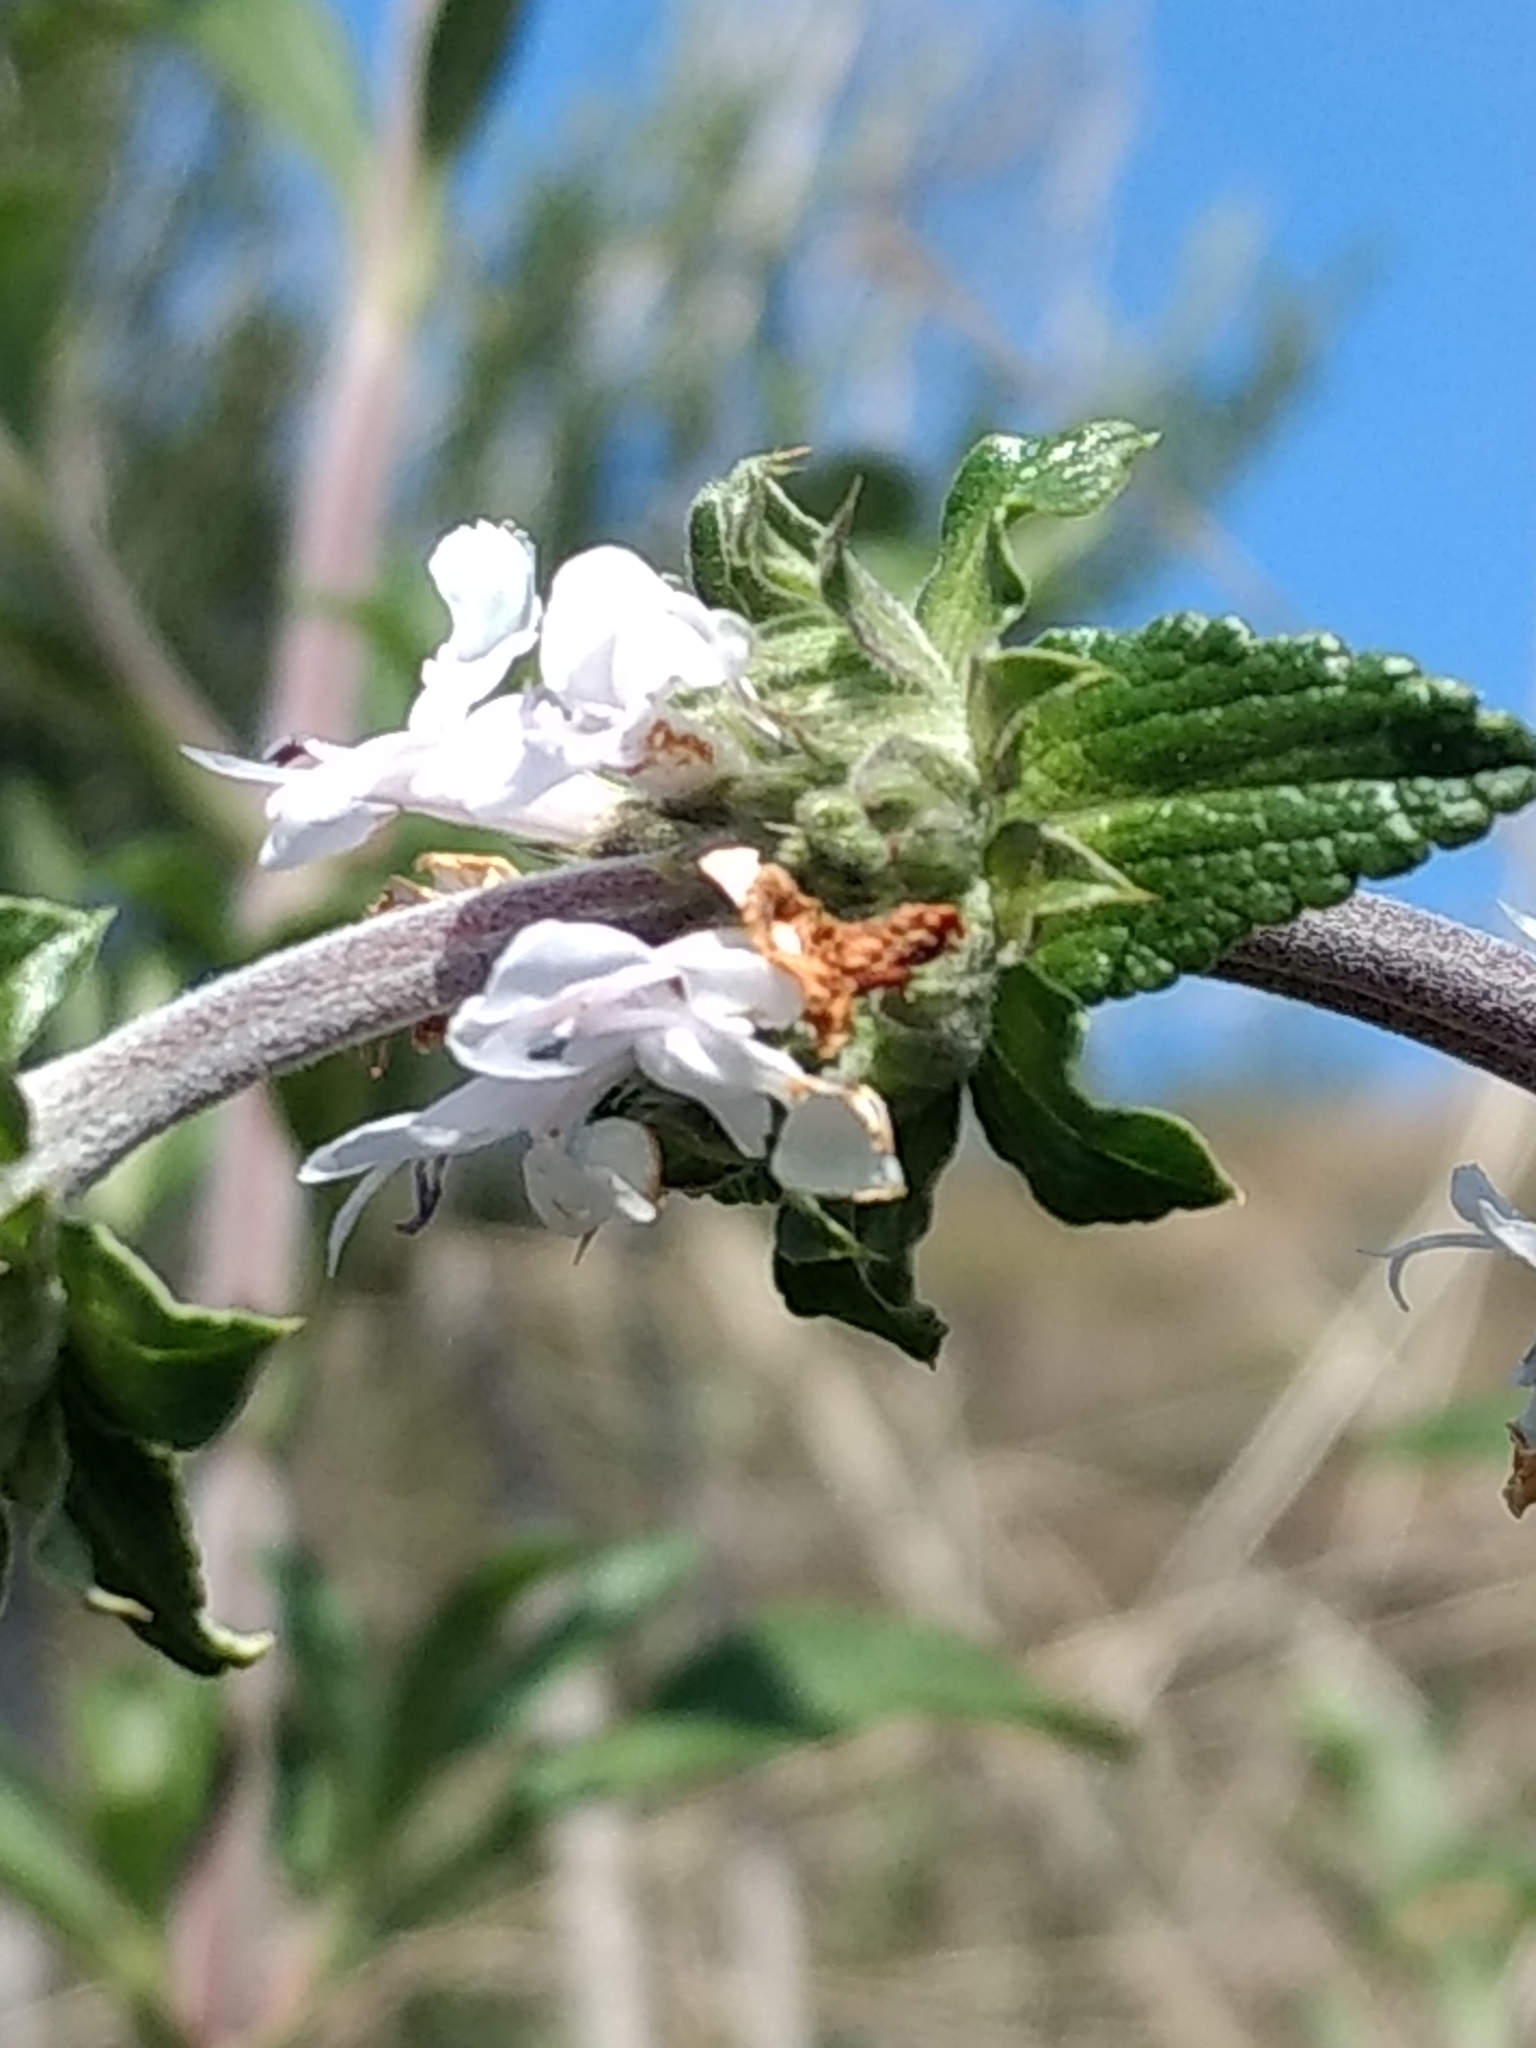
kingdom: Plantae
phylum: Tracheophyta
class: Magnoliopsida
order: Lamiales
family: Lamiaceae
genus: Salvia
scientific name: Salvia mellifera
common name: Black sage
